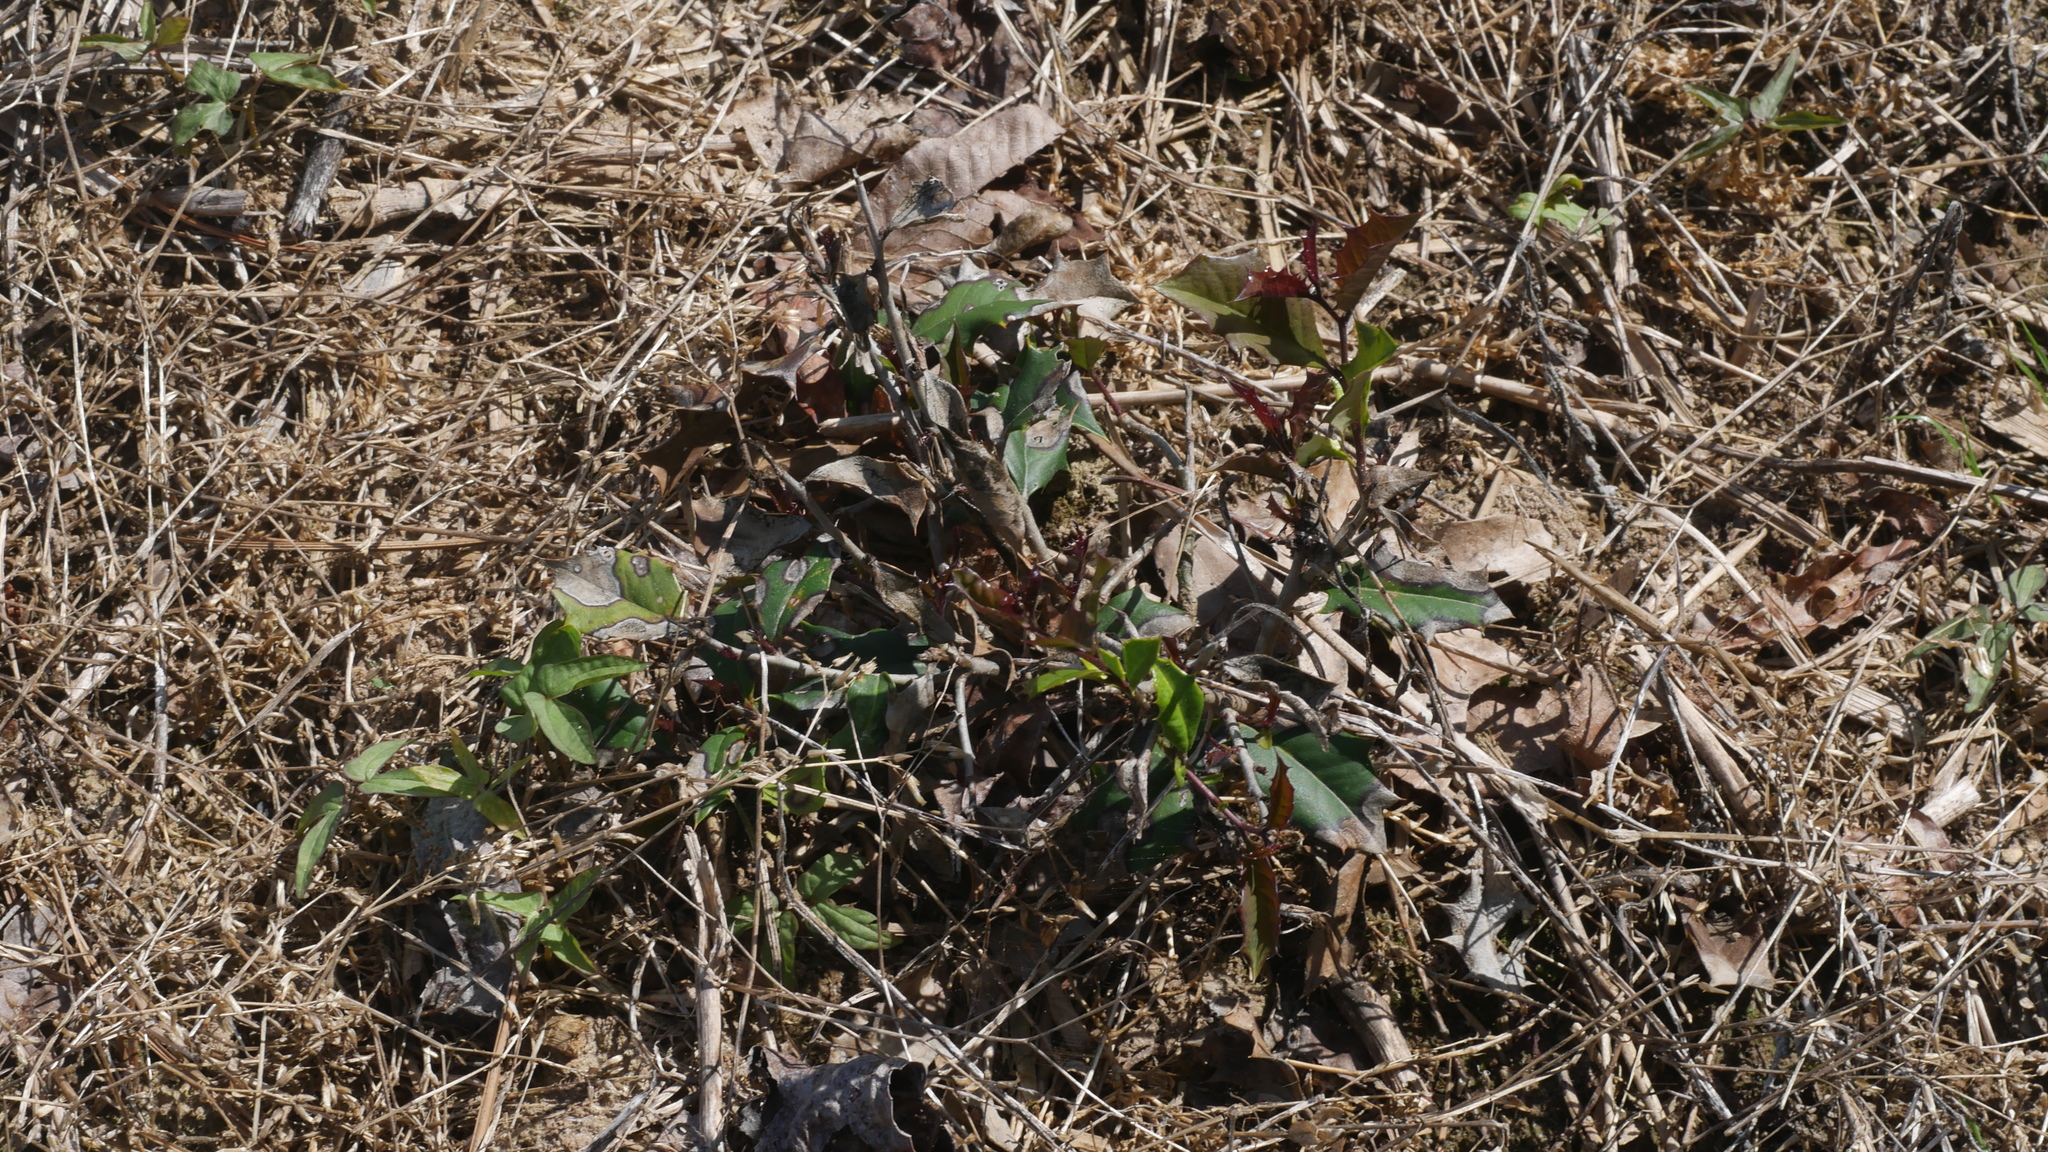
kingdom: Plantae
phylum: Tracheophyta
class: Magnoliopsida
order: Aquifoliales
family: Aquifoliaceae
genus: Ilex
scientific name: Ilex opaca
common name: American holly
